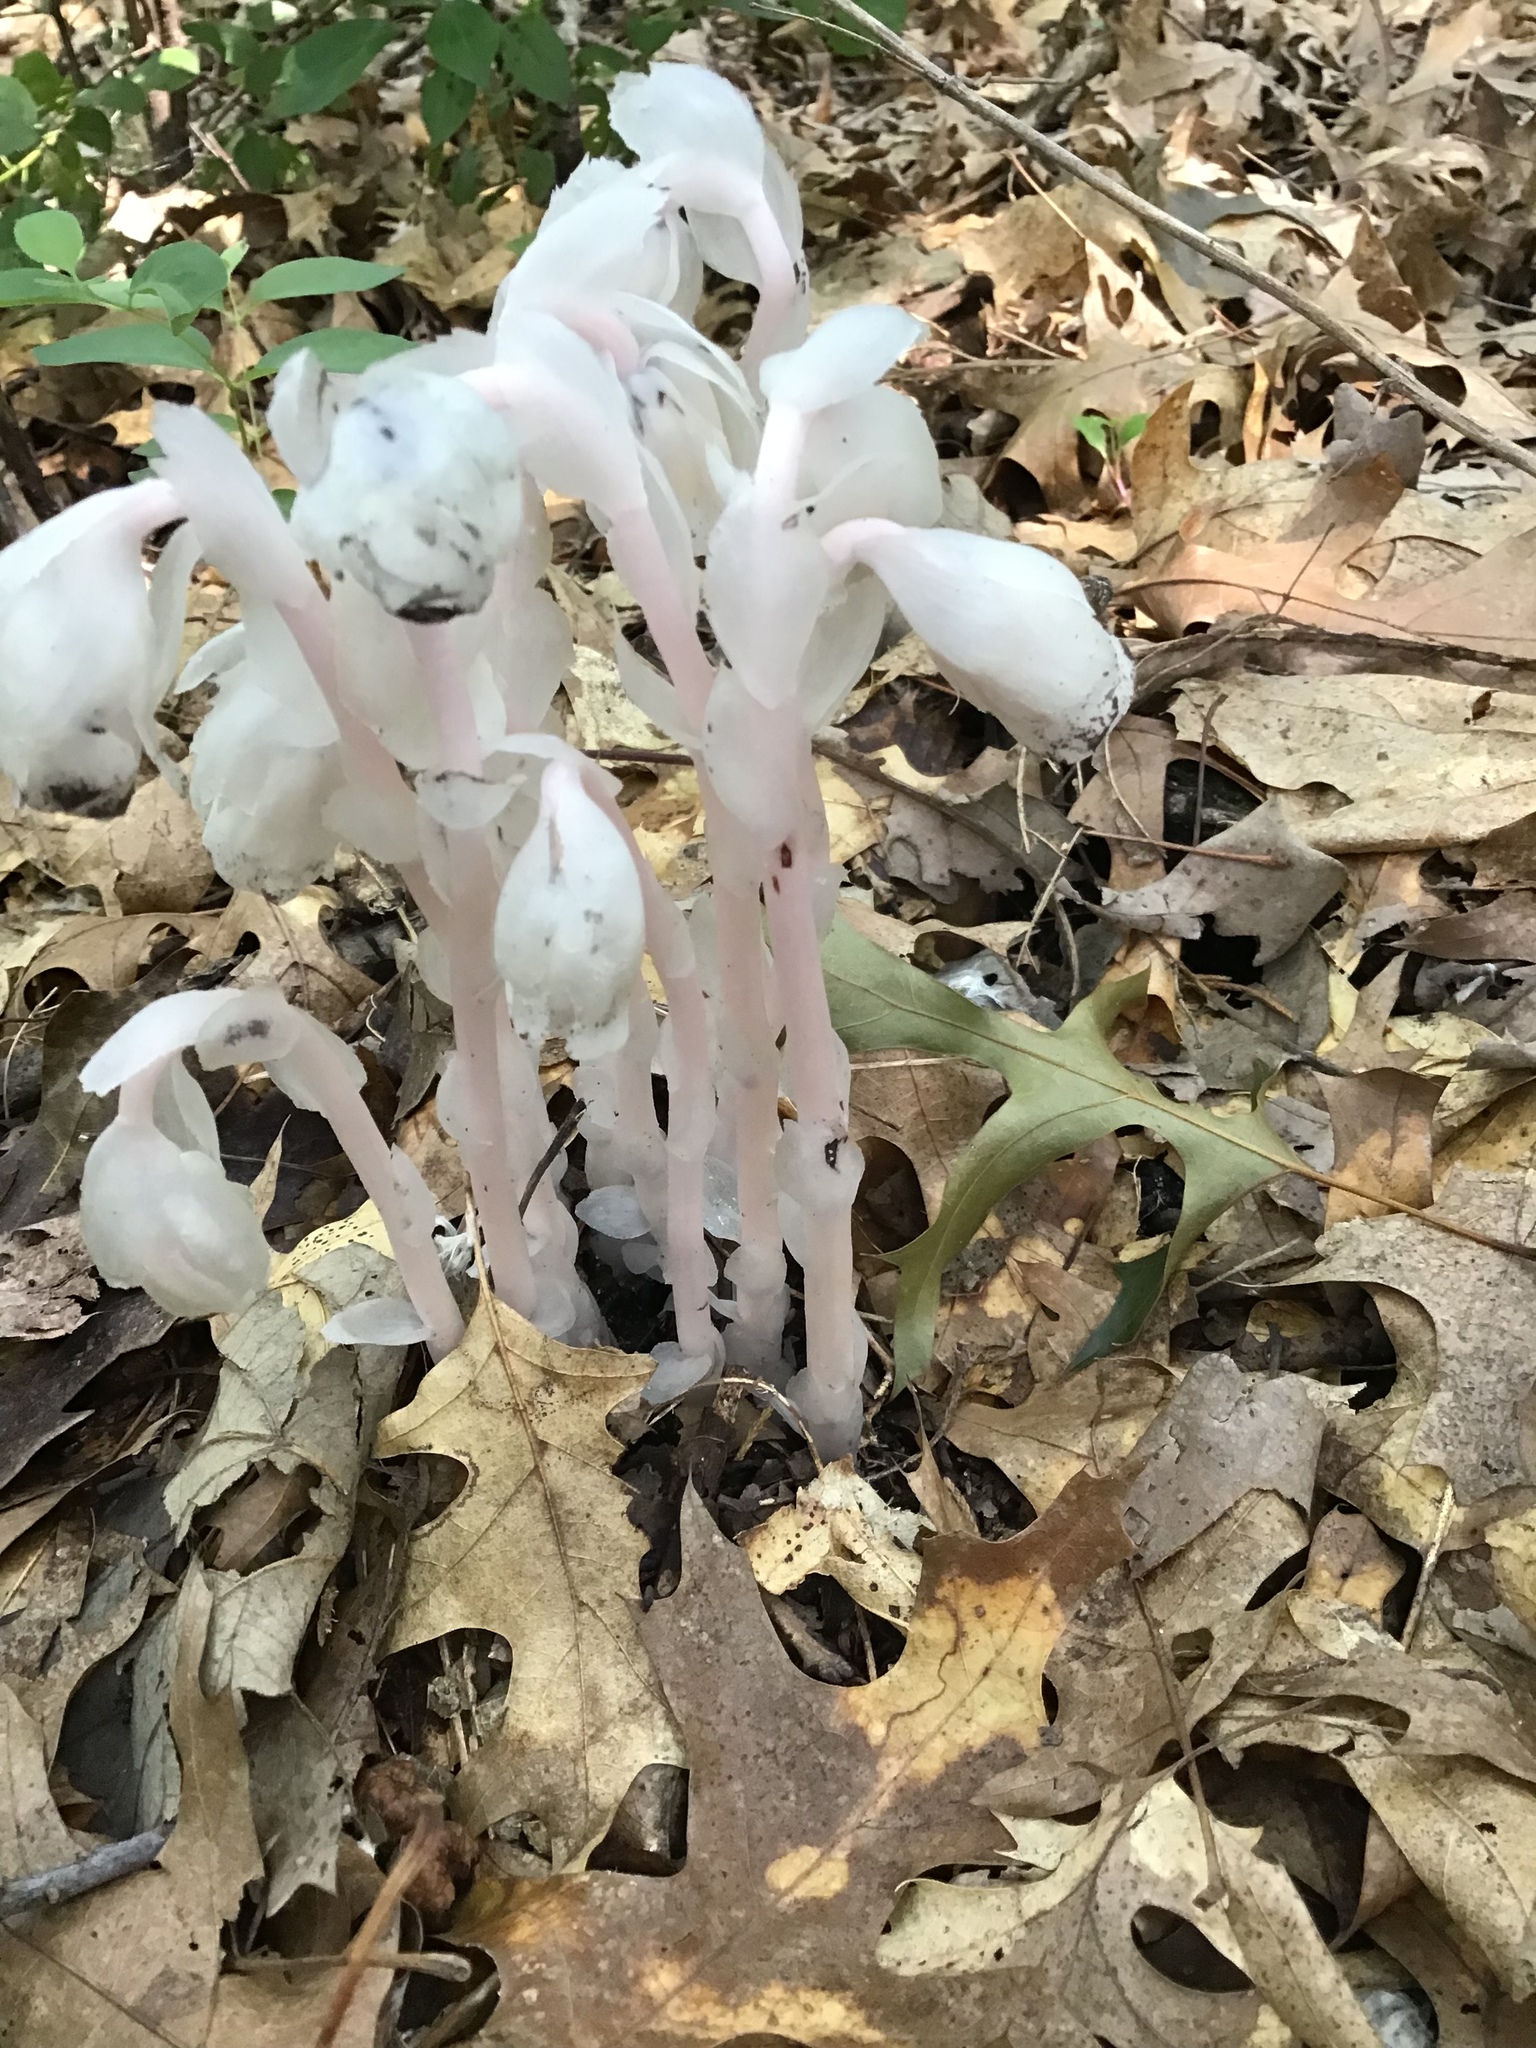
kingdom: Plantae
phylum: Tracheophyta
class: Magnoliopsida
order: Ericales
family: Ericaceae
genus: Monotropa
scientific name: Monotropa uniflora
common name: Convulsion root
